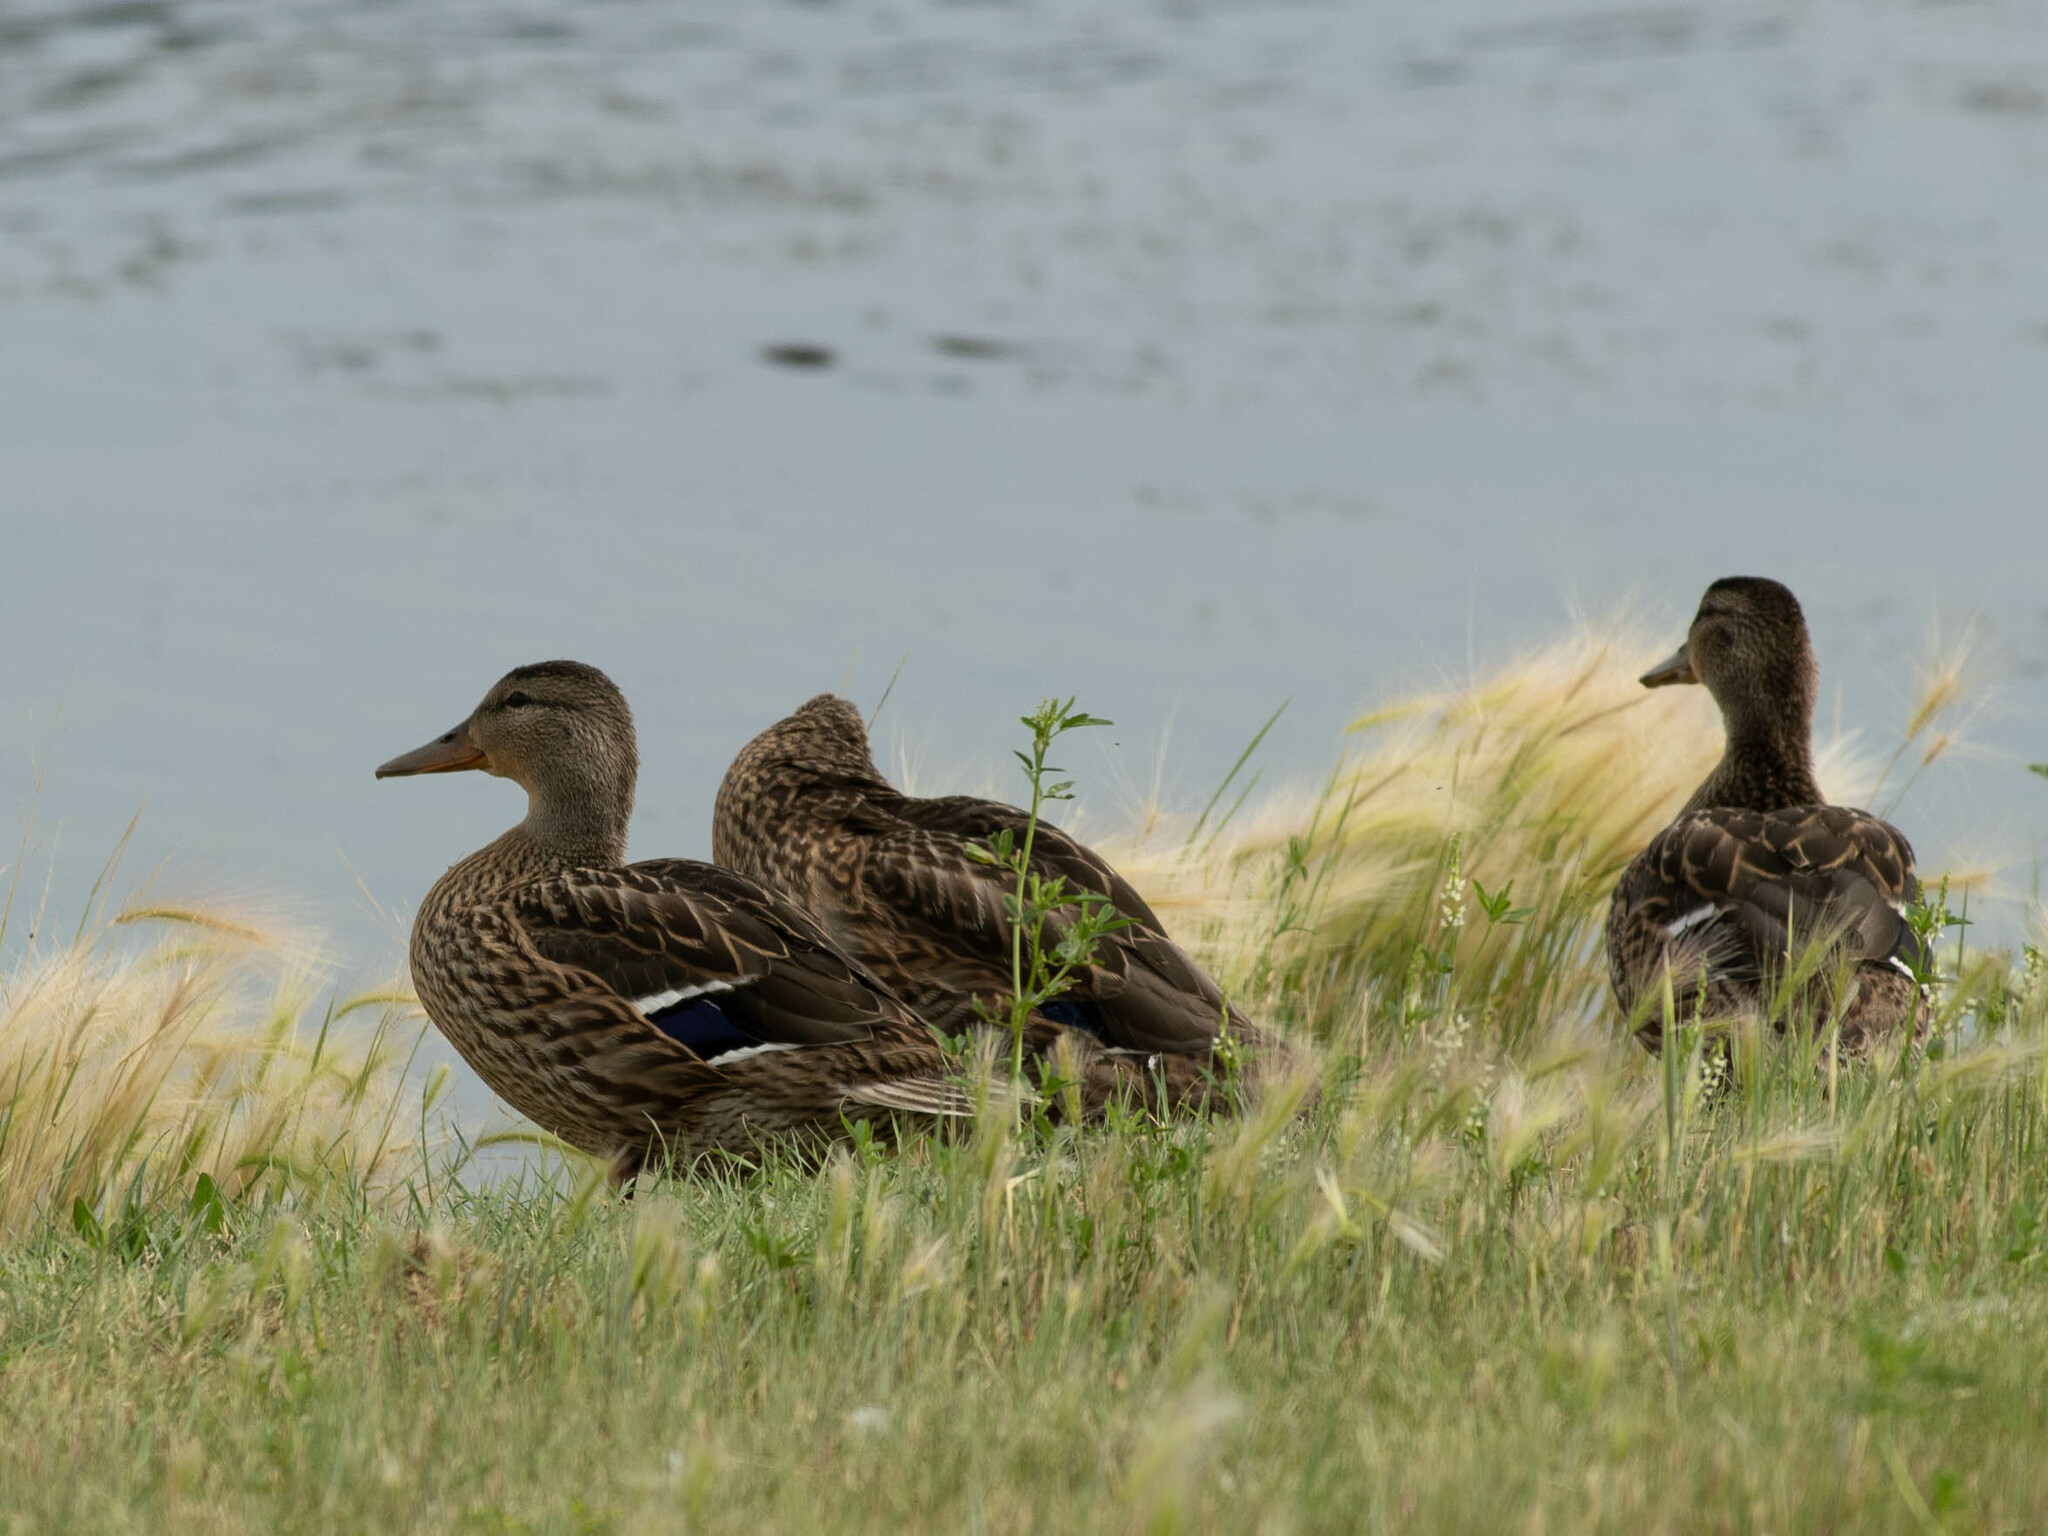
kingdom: Animalia
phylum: Chordata
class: Aves
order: Anseriformes
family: Anatidae
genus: Anas
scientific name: Anas platyrhynchos
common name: Mallard
